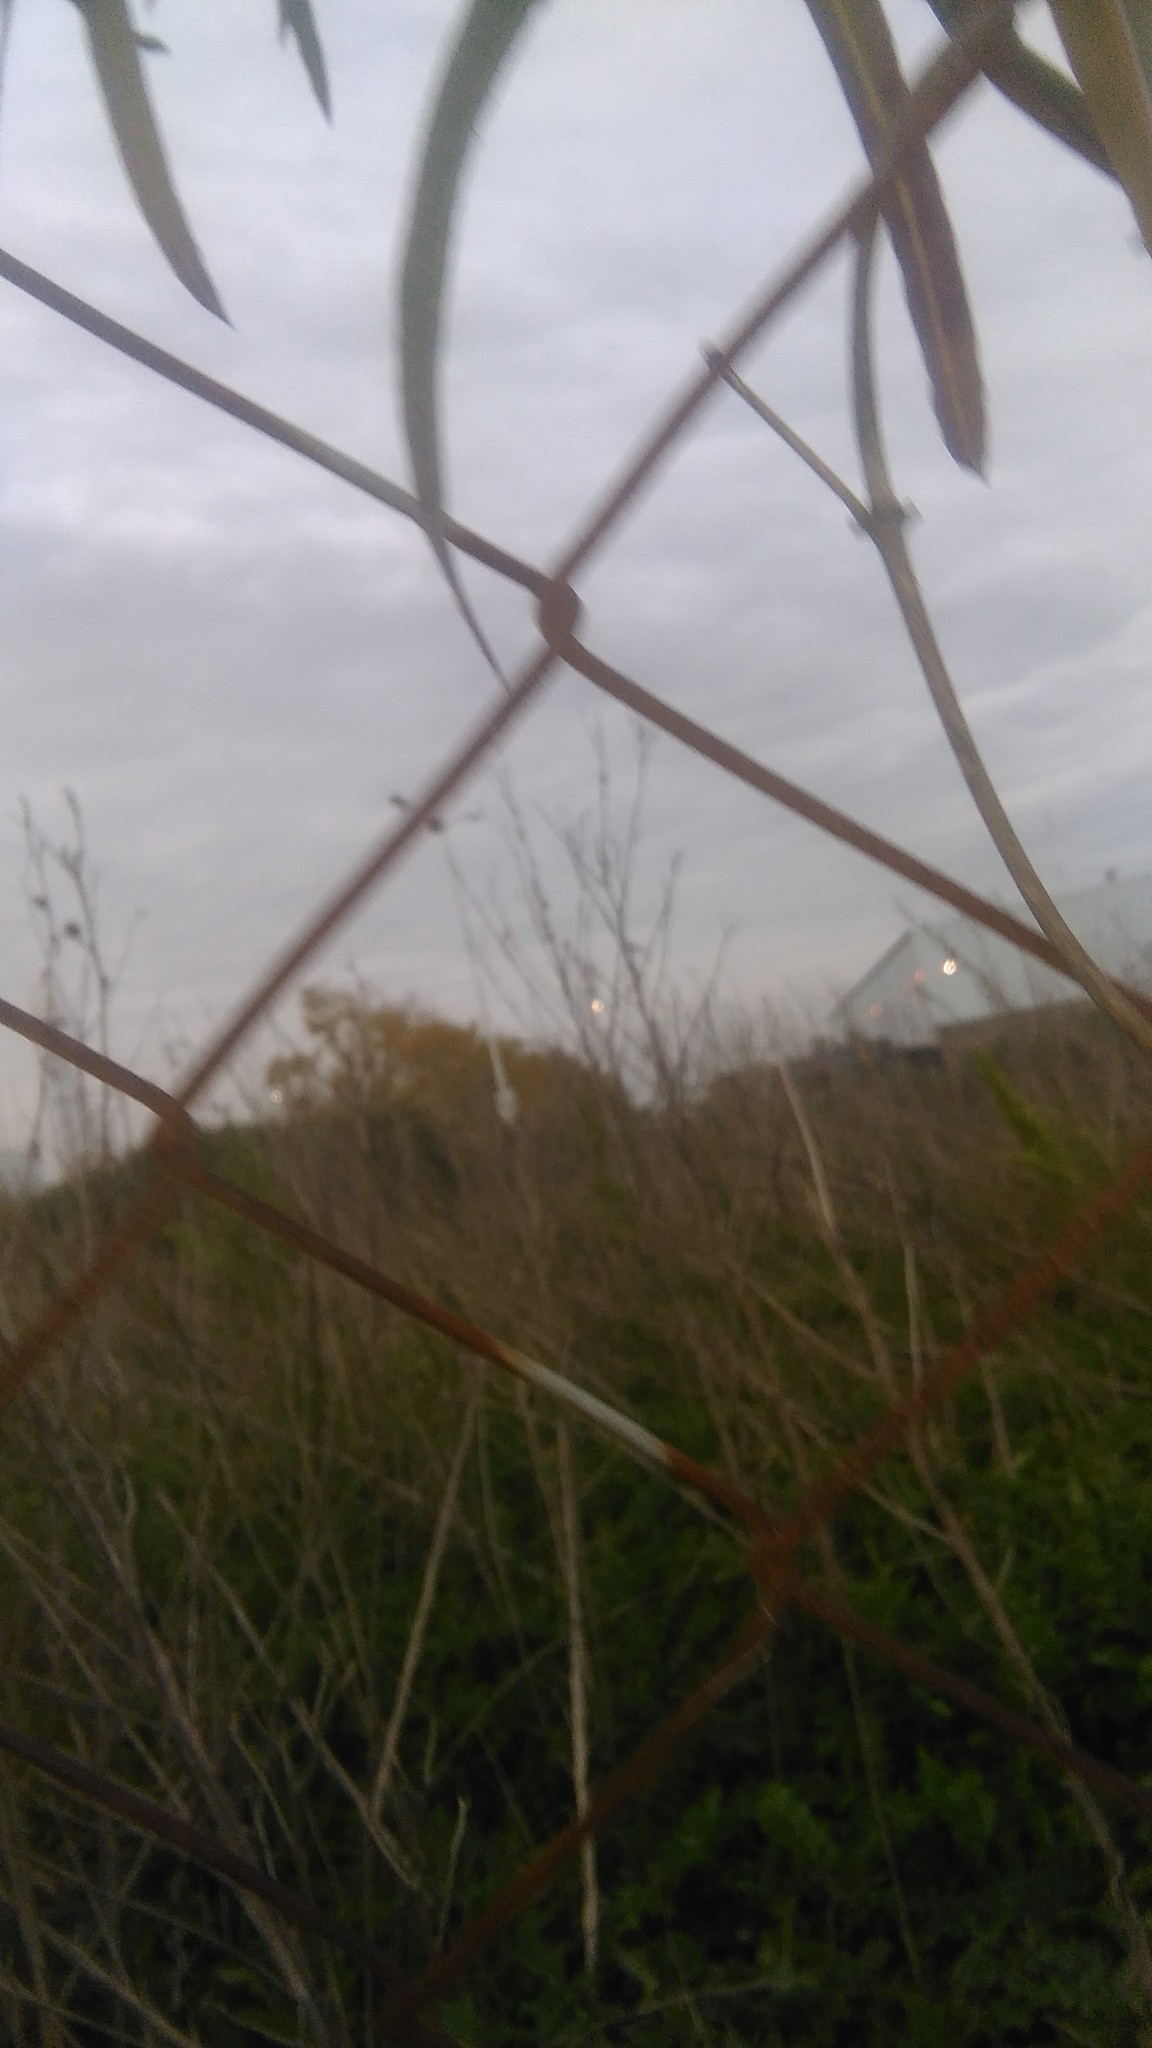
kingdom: Plantae
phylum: Tracheophyta
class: Magnoliopsida
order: Gentianales
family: Apocynaceae
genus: Araujia
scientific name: Araujia angustifolia
